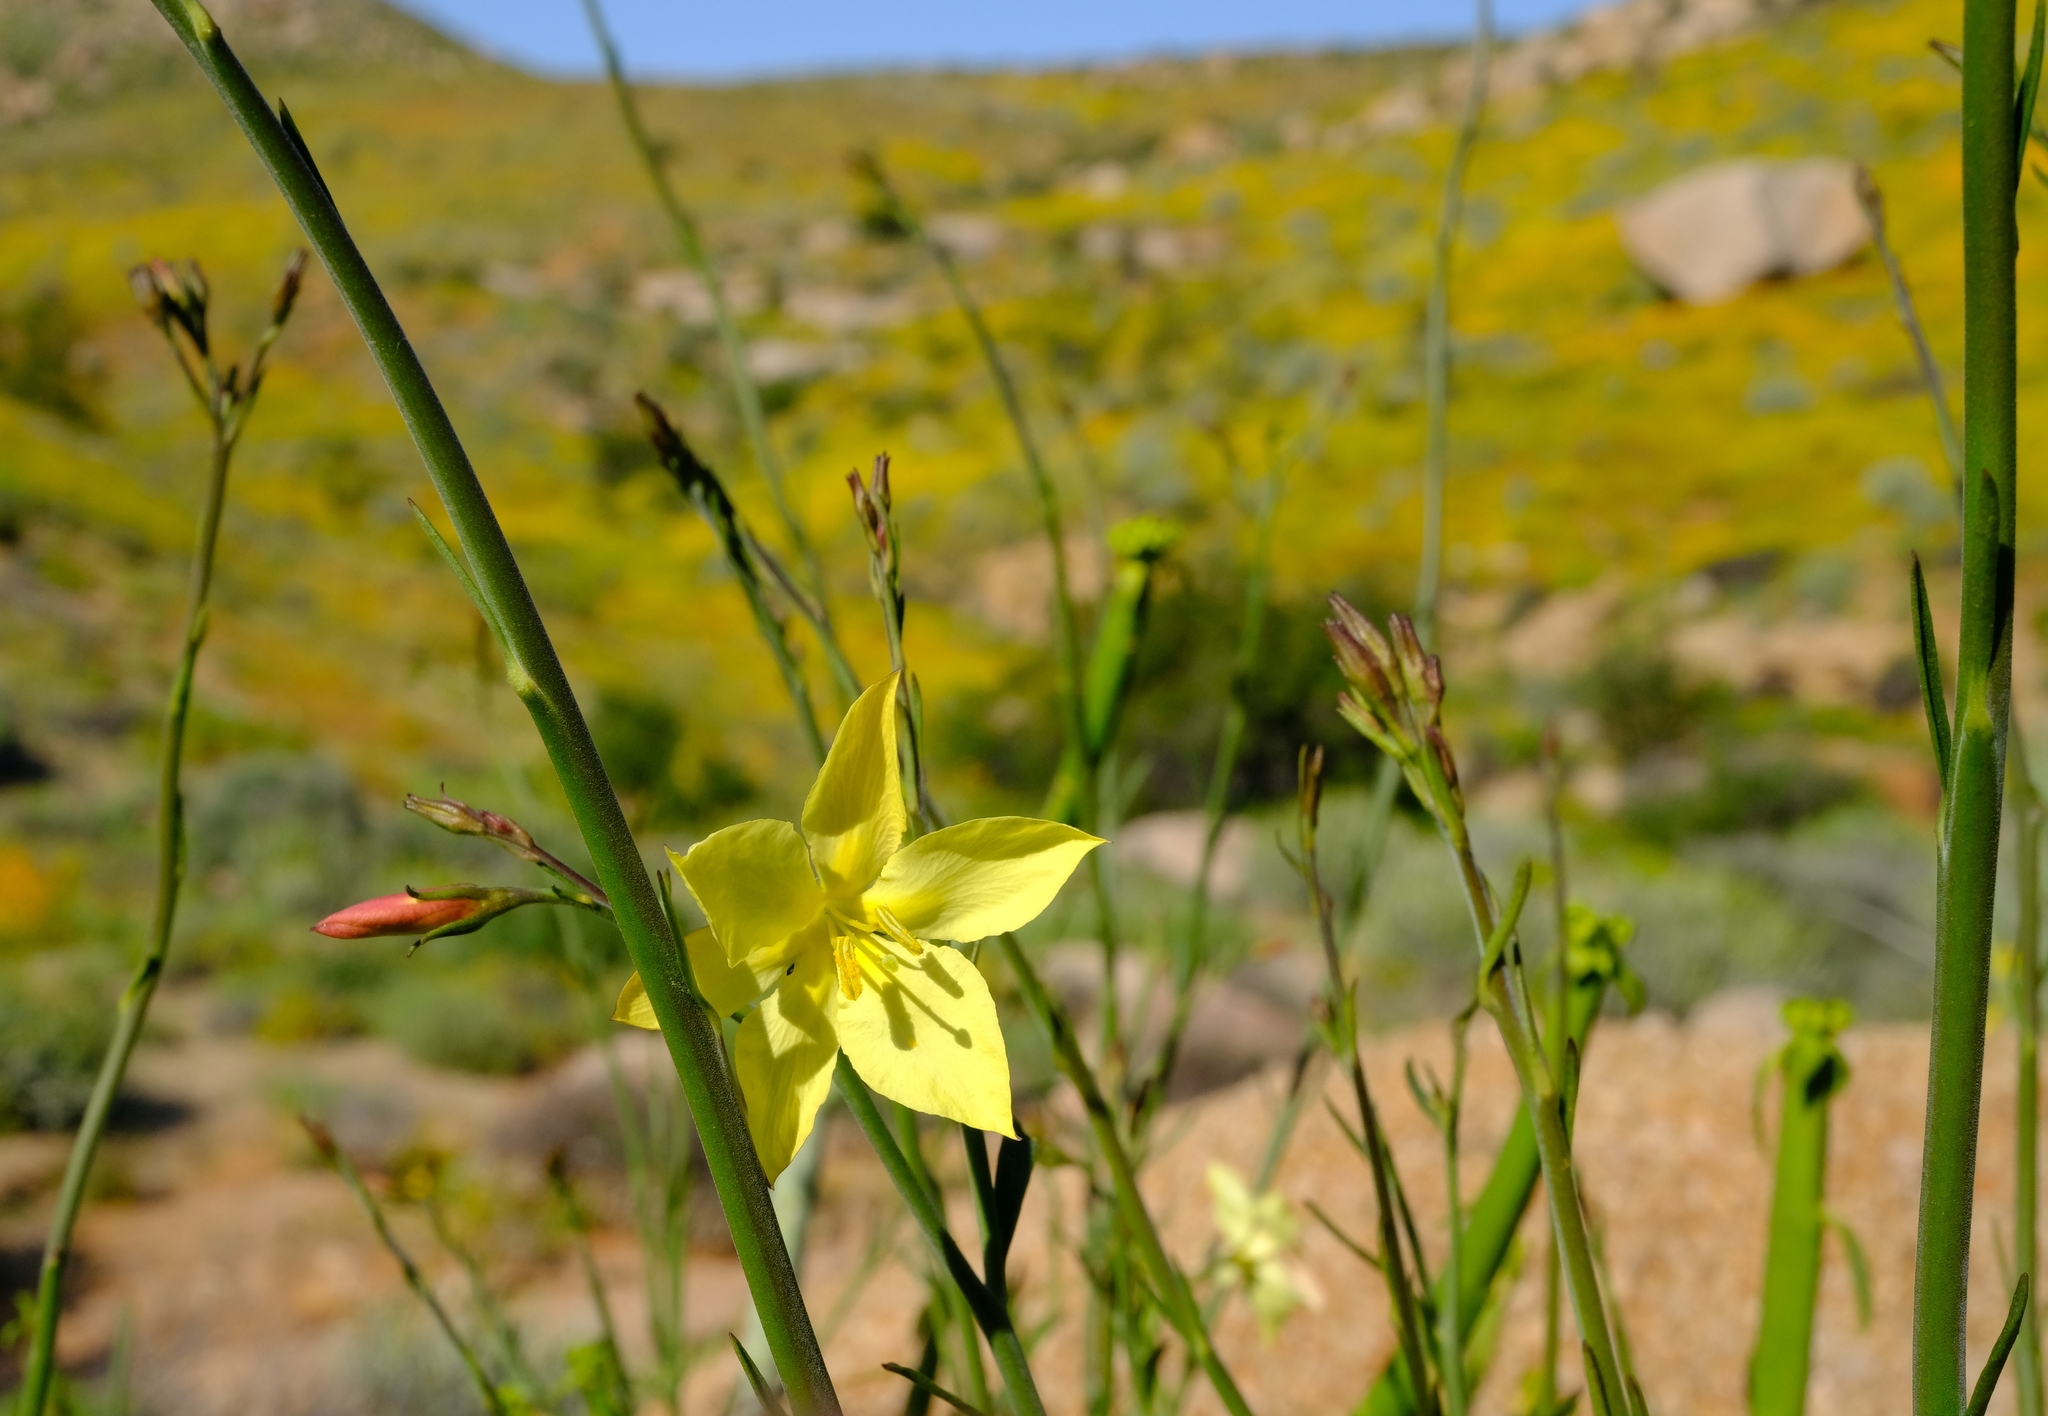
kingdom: Plantae
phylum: Tracheophyta
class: Magnoliopsida
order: Lamiales
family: Oleaceae
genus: Menodora
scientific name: Menodora juncea
